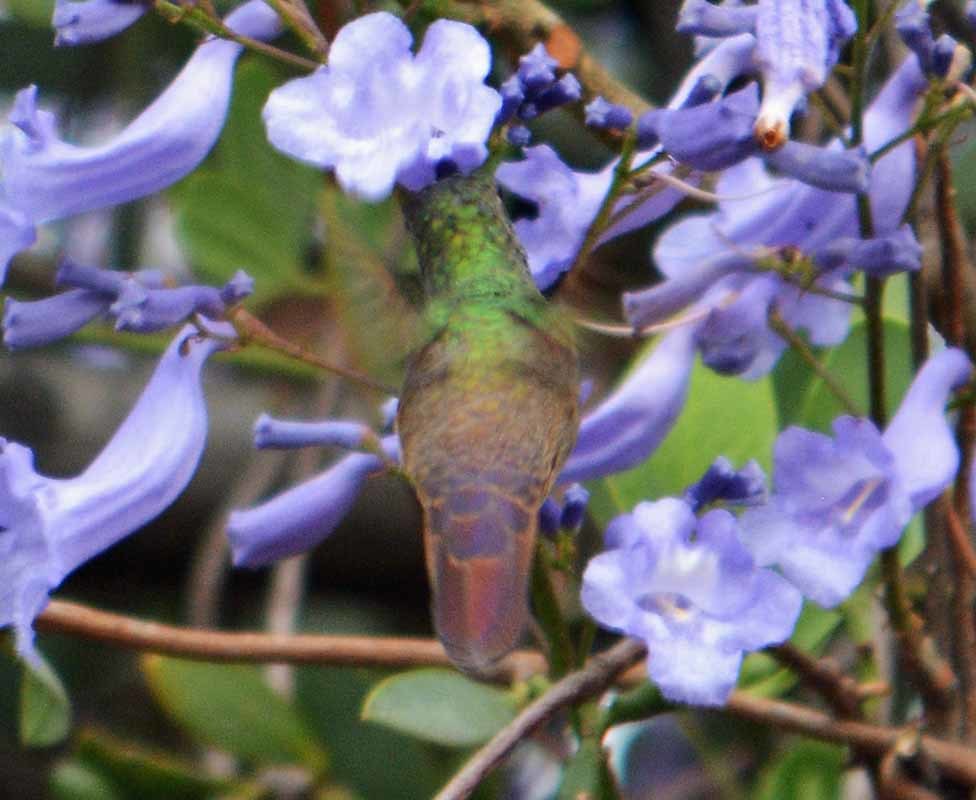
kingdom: Animalia
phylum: Chordata
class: Aves
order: Apodiformes
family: Trochilidae
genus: Saucerottia
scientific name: Saucerottia beryllina
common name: Berylline hummingbird
